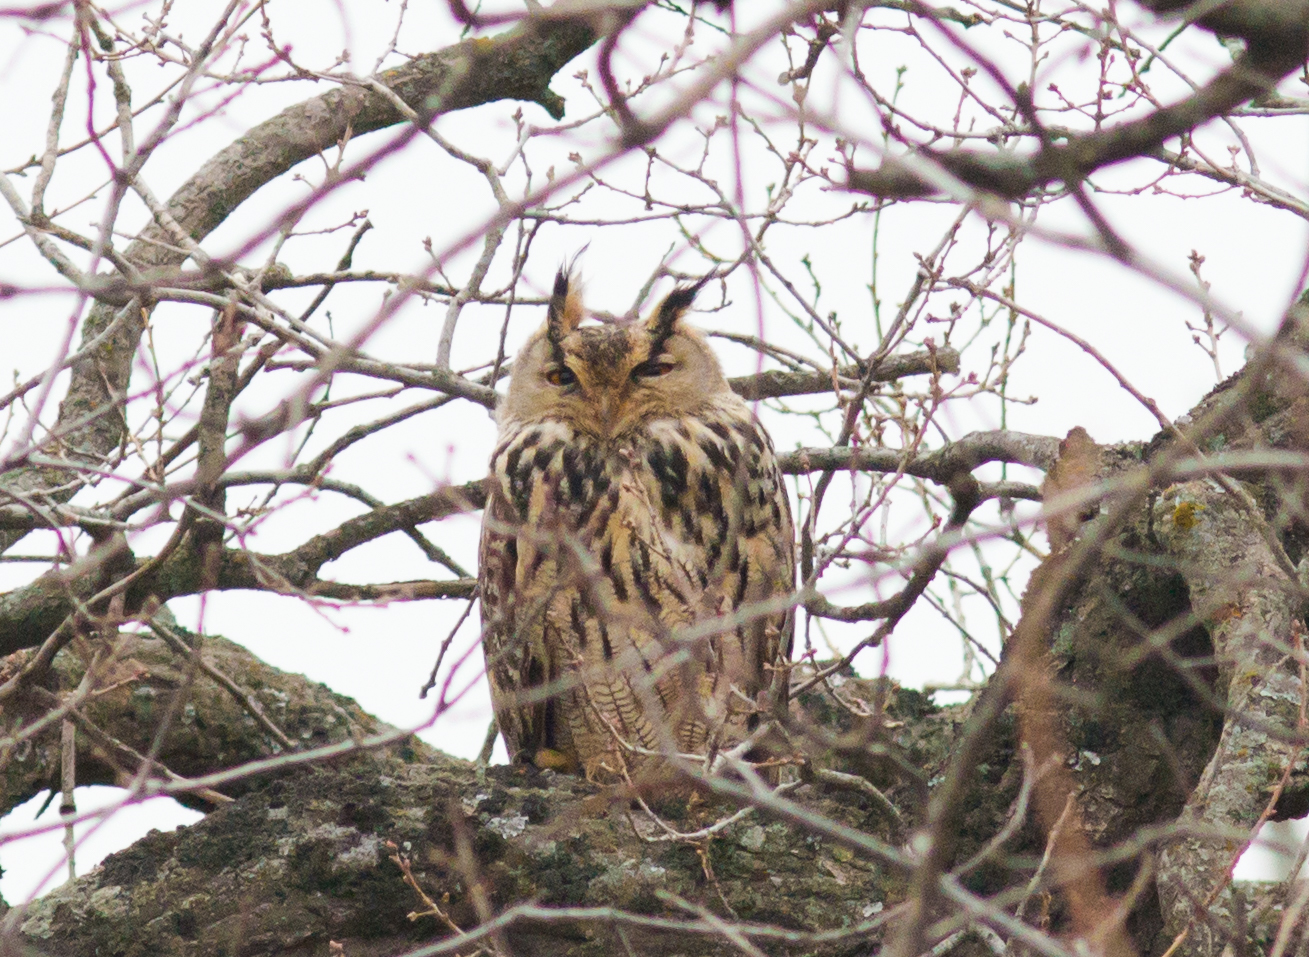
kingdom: Animalia
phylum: Chordata
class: Aves
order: Strigiformes
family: Strigidae
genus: Bubo
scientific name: Bubo bubo
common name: Eurasian eagle-owl
